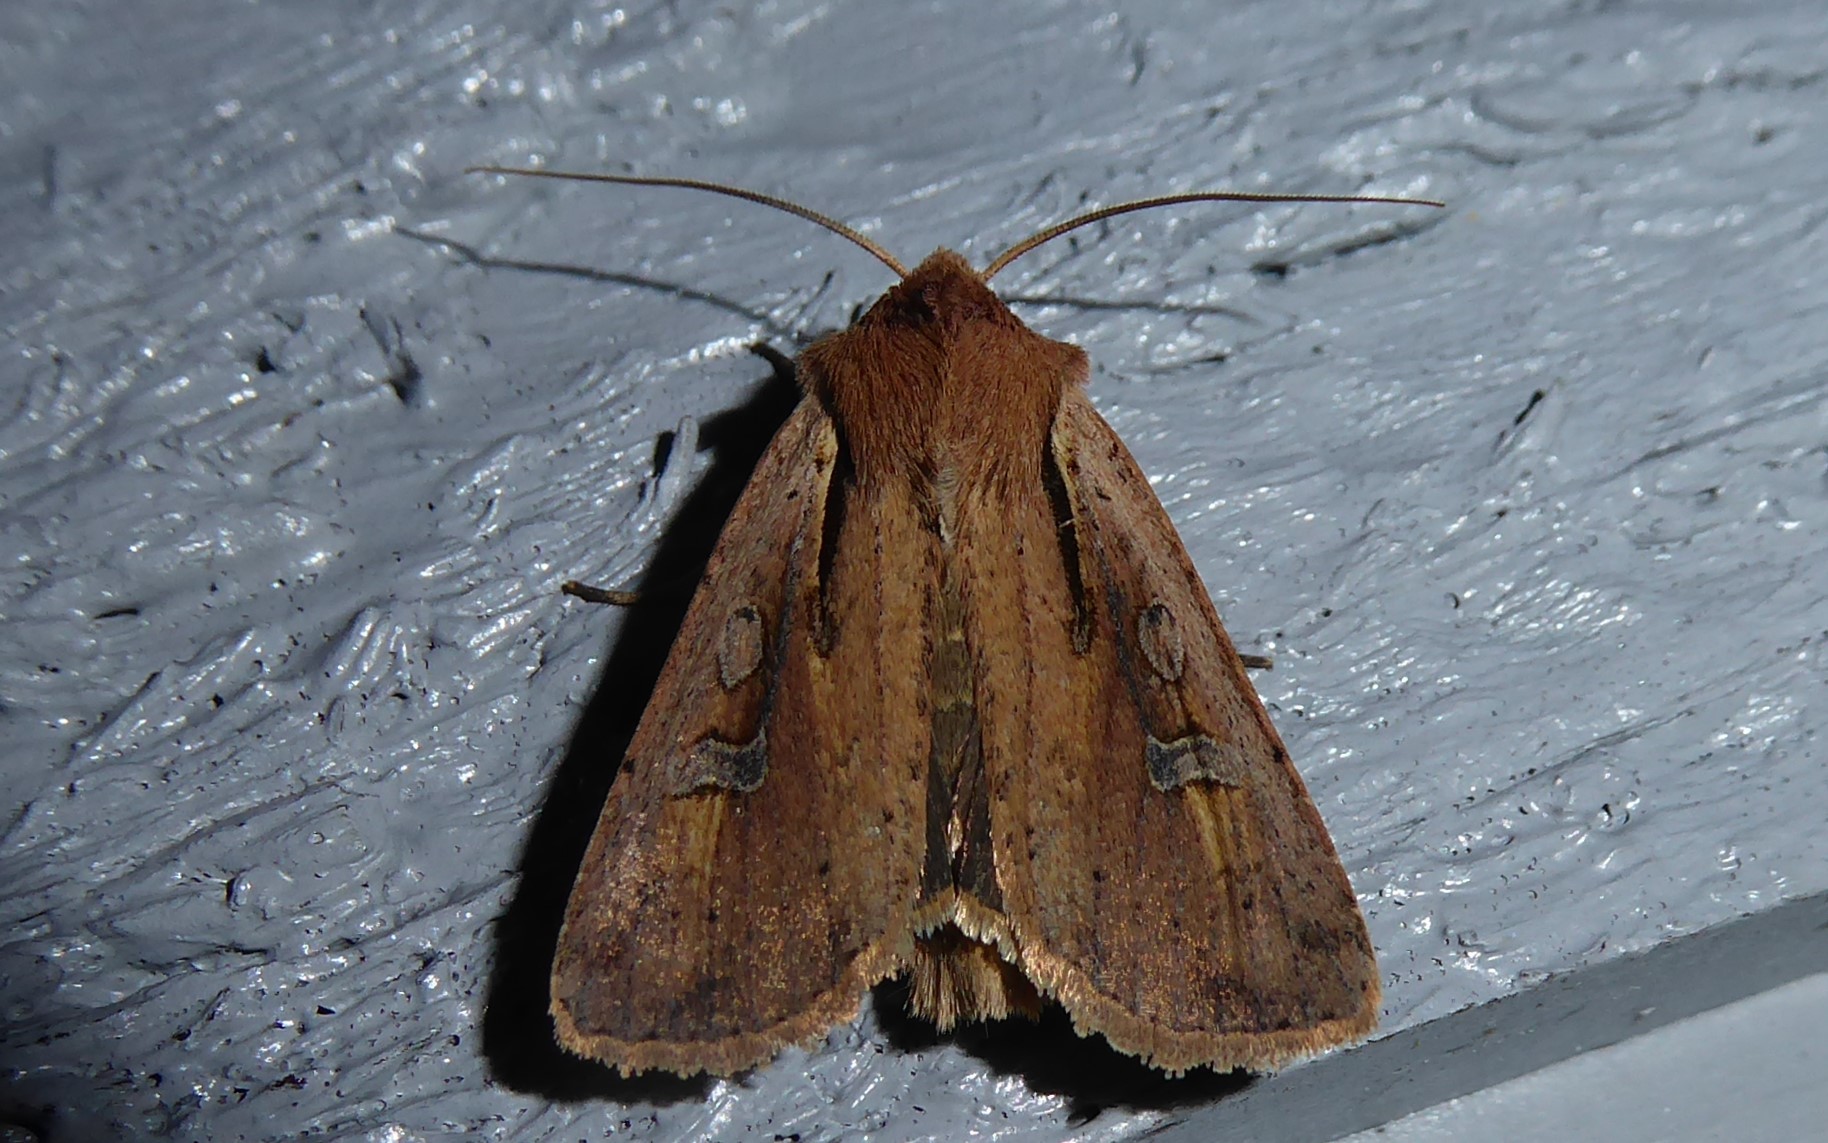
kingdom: Animalia
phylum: Arthropoda
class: Insecta
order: Lepidoptera
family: Noctuidae
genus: Ichneutica
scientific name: Ichneutica atristriga
